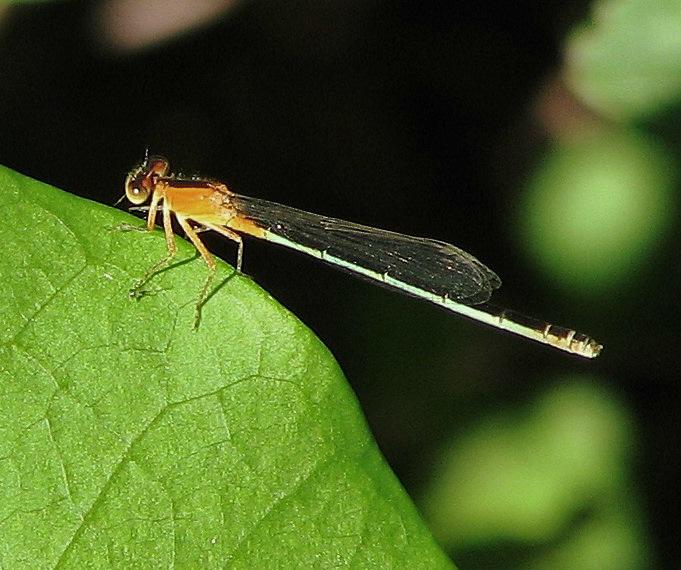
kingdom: Animalia
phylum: Arthropoda
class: Insecta
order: Odonata
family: Coenagrionidae
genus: Ischnura
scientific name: Ischnura fluviatilis
